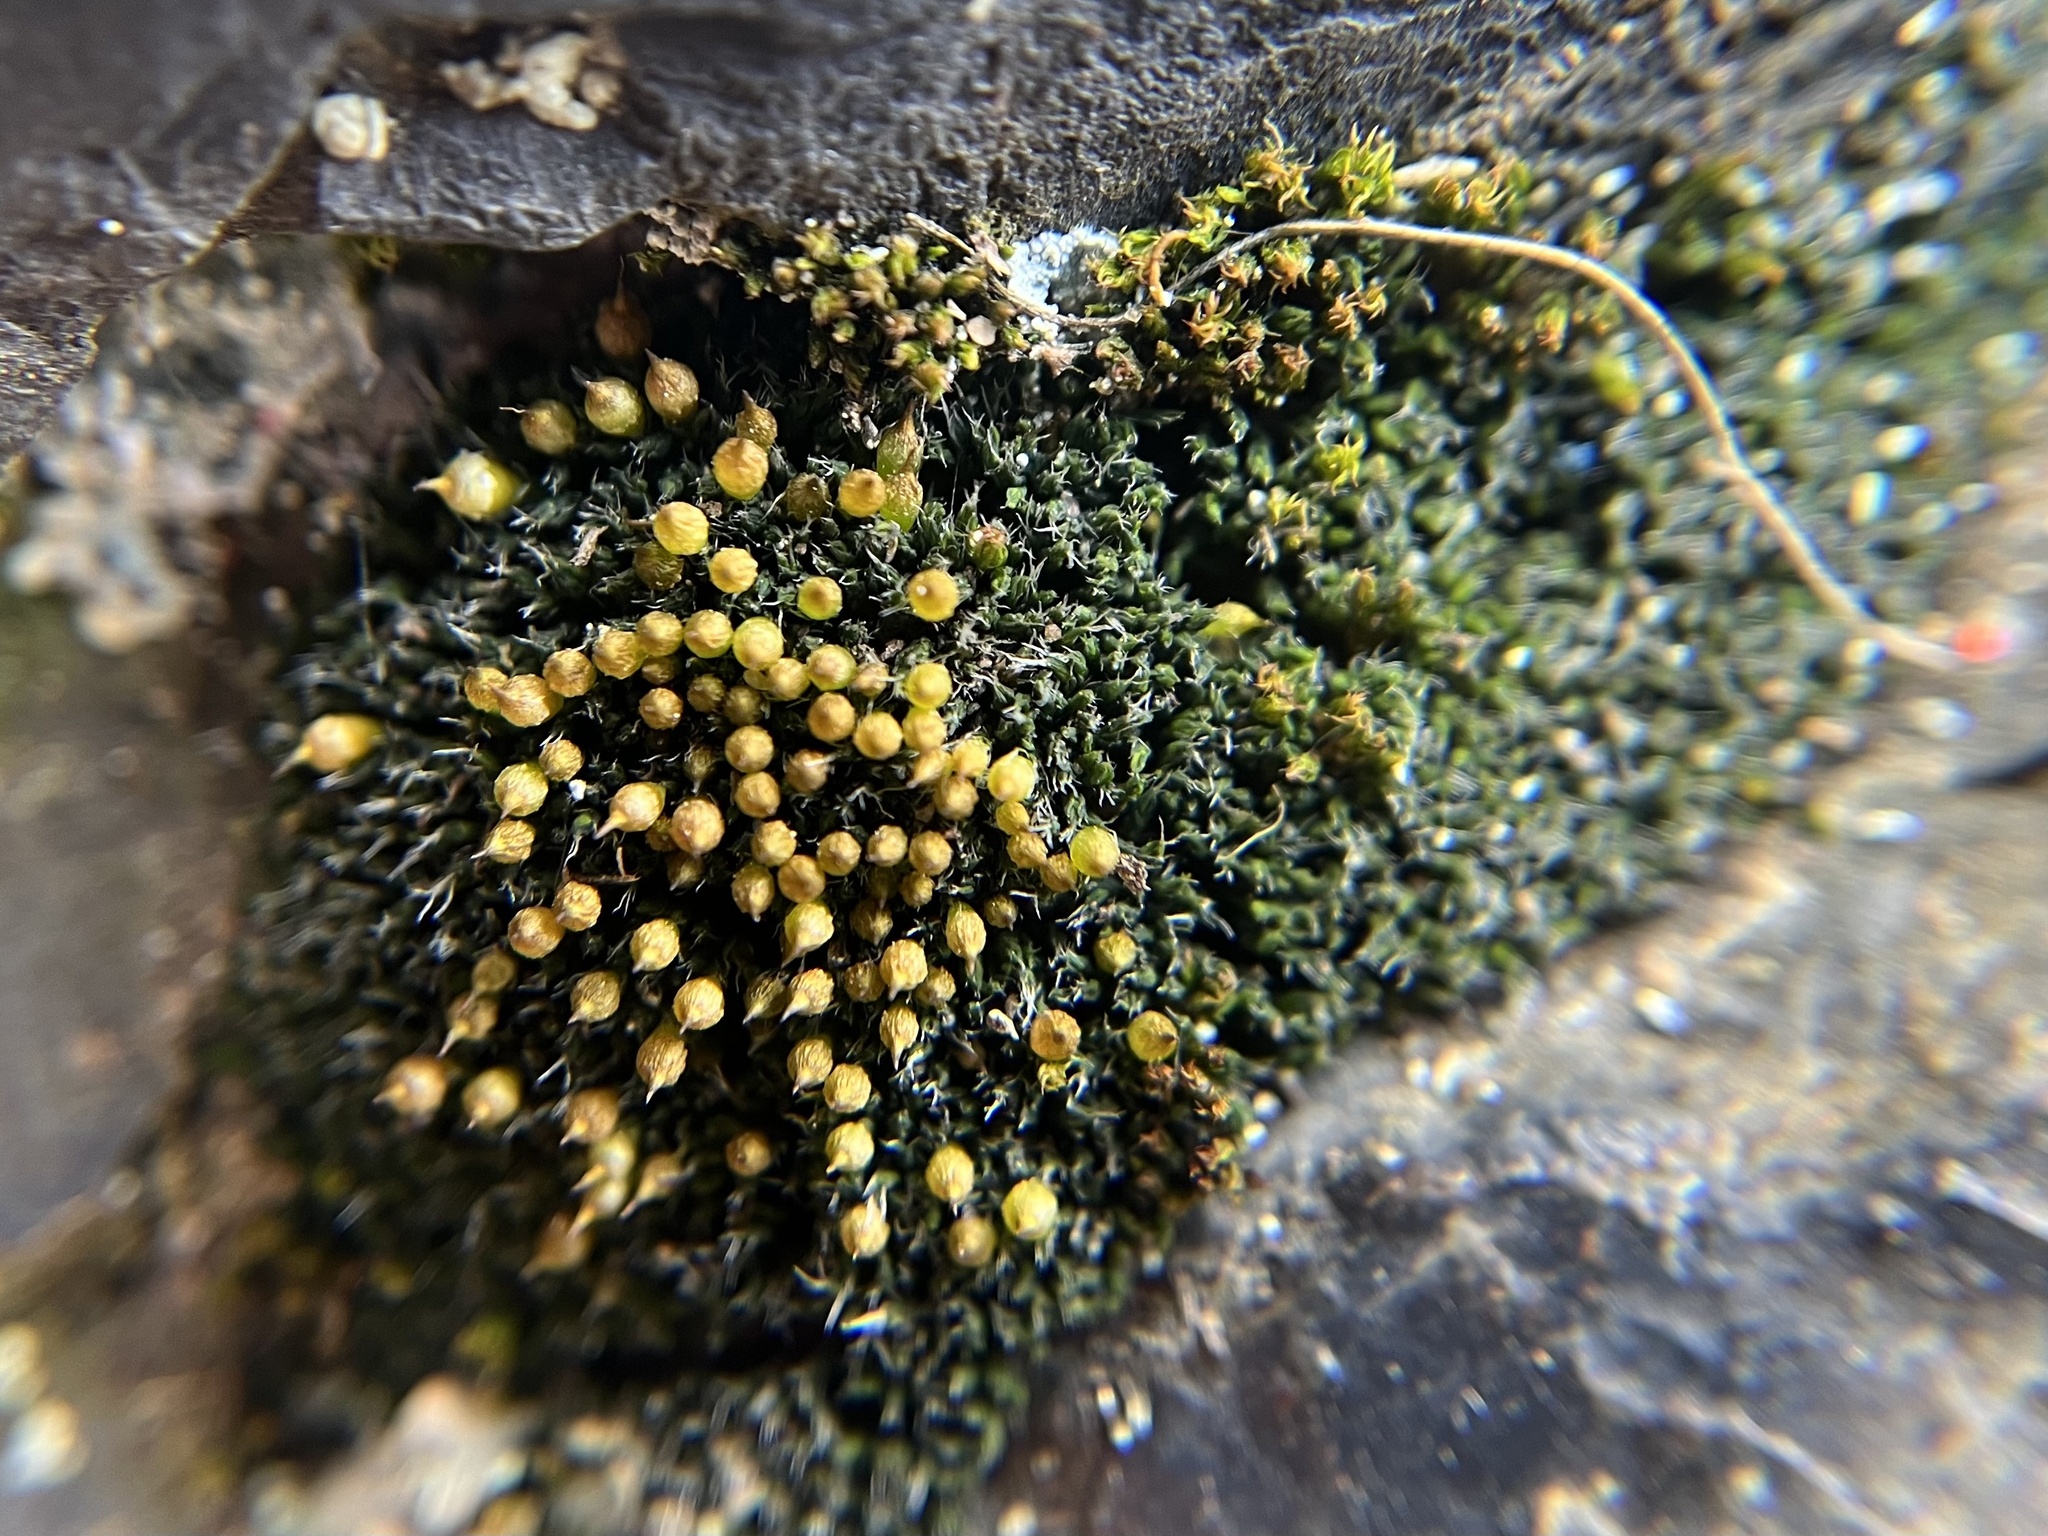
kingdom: Plantae
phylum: Bryophyta
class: Bryopsida
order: Grimmiales
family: Grimmiaceae
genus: Coscinodon
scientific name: Coscinodon cribrosus
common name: Sieve-tooth moss
